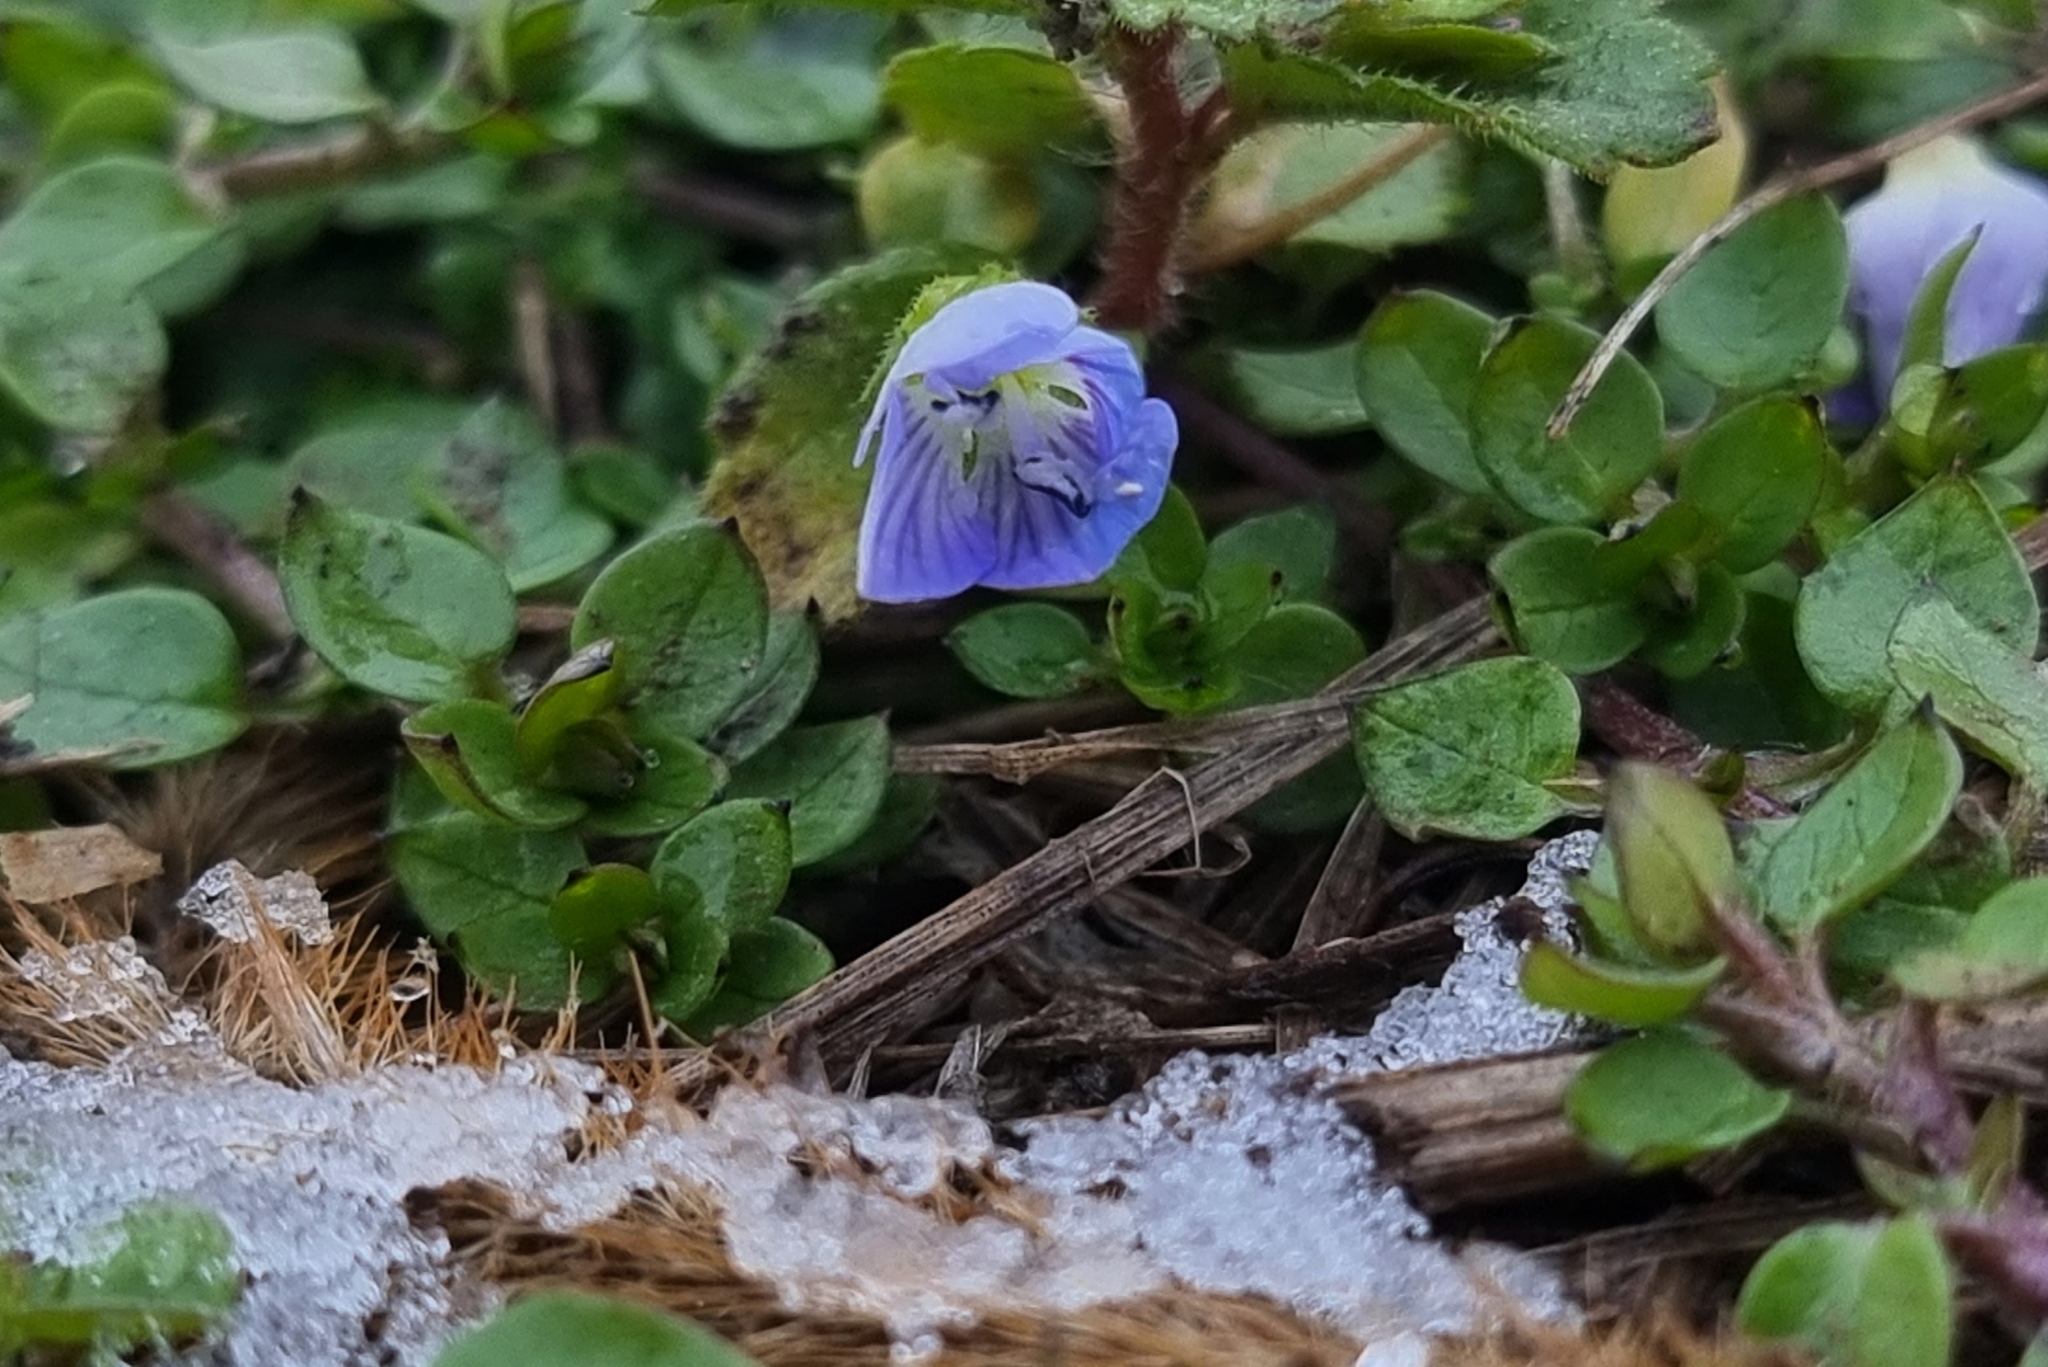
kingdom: Plantae
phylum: Tracheophyta
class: Magnoliopsida
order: Lamiales
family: Plantaginaceae
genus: Veronica
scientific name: Veronica persica
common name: Common field-speedwell
